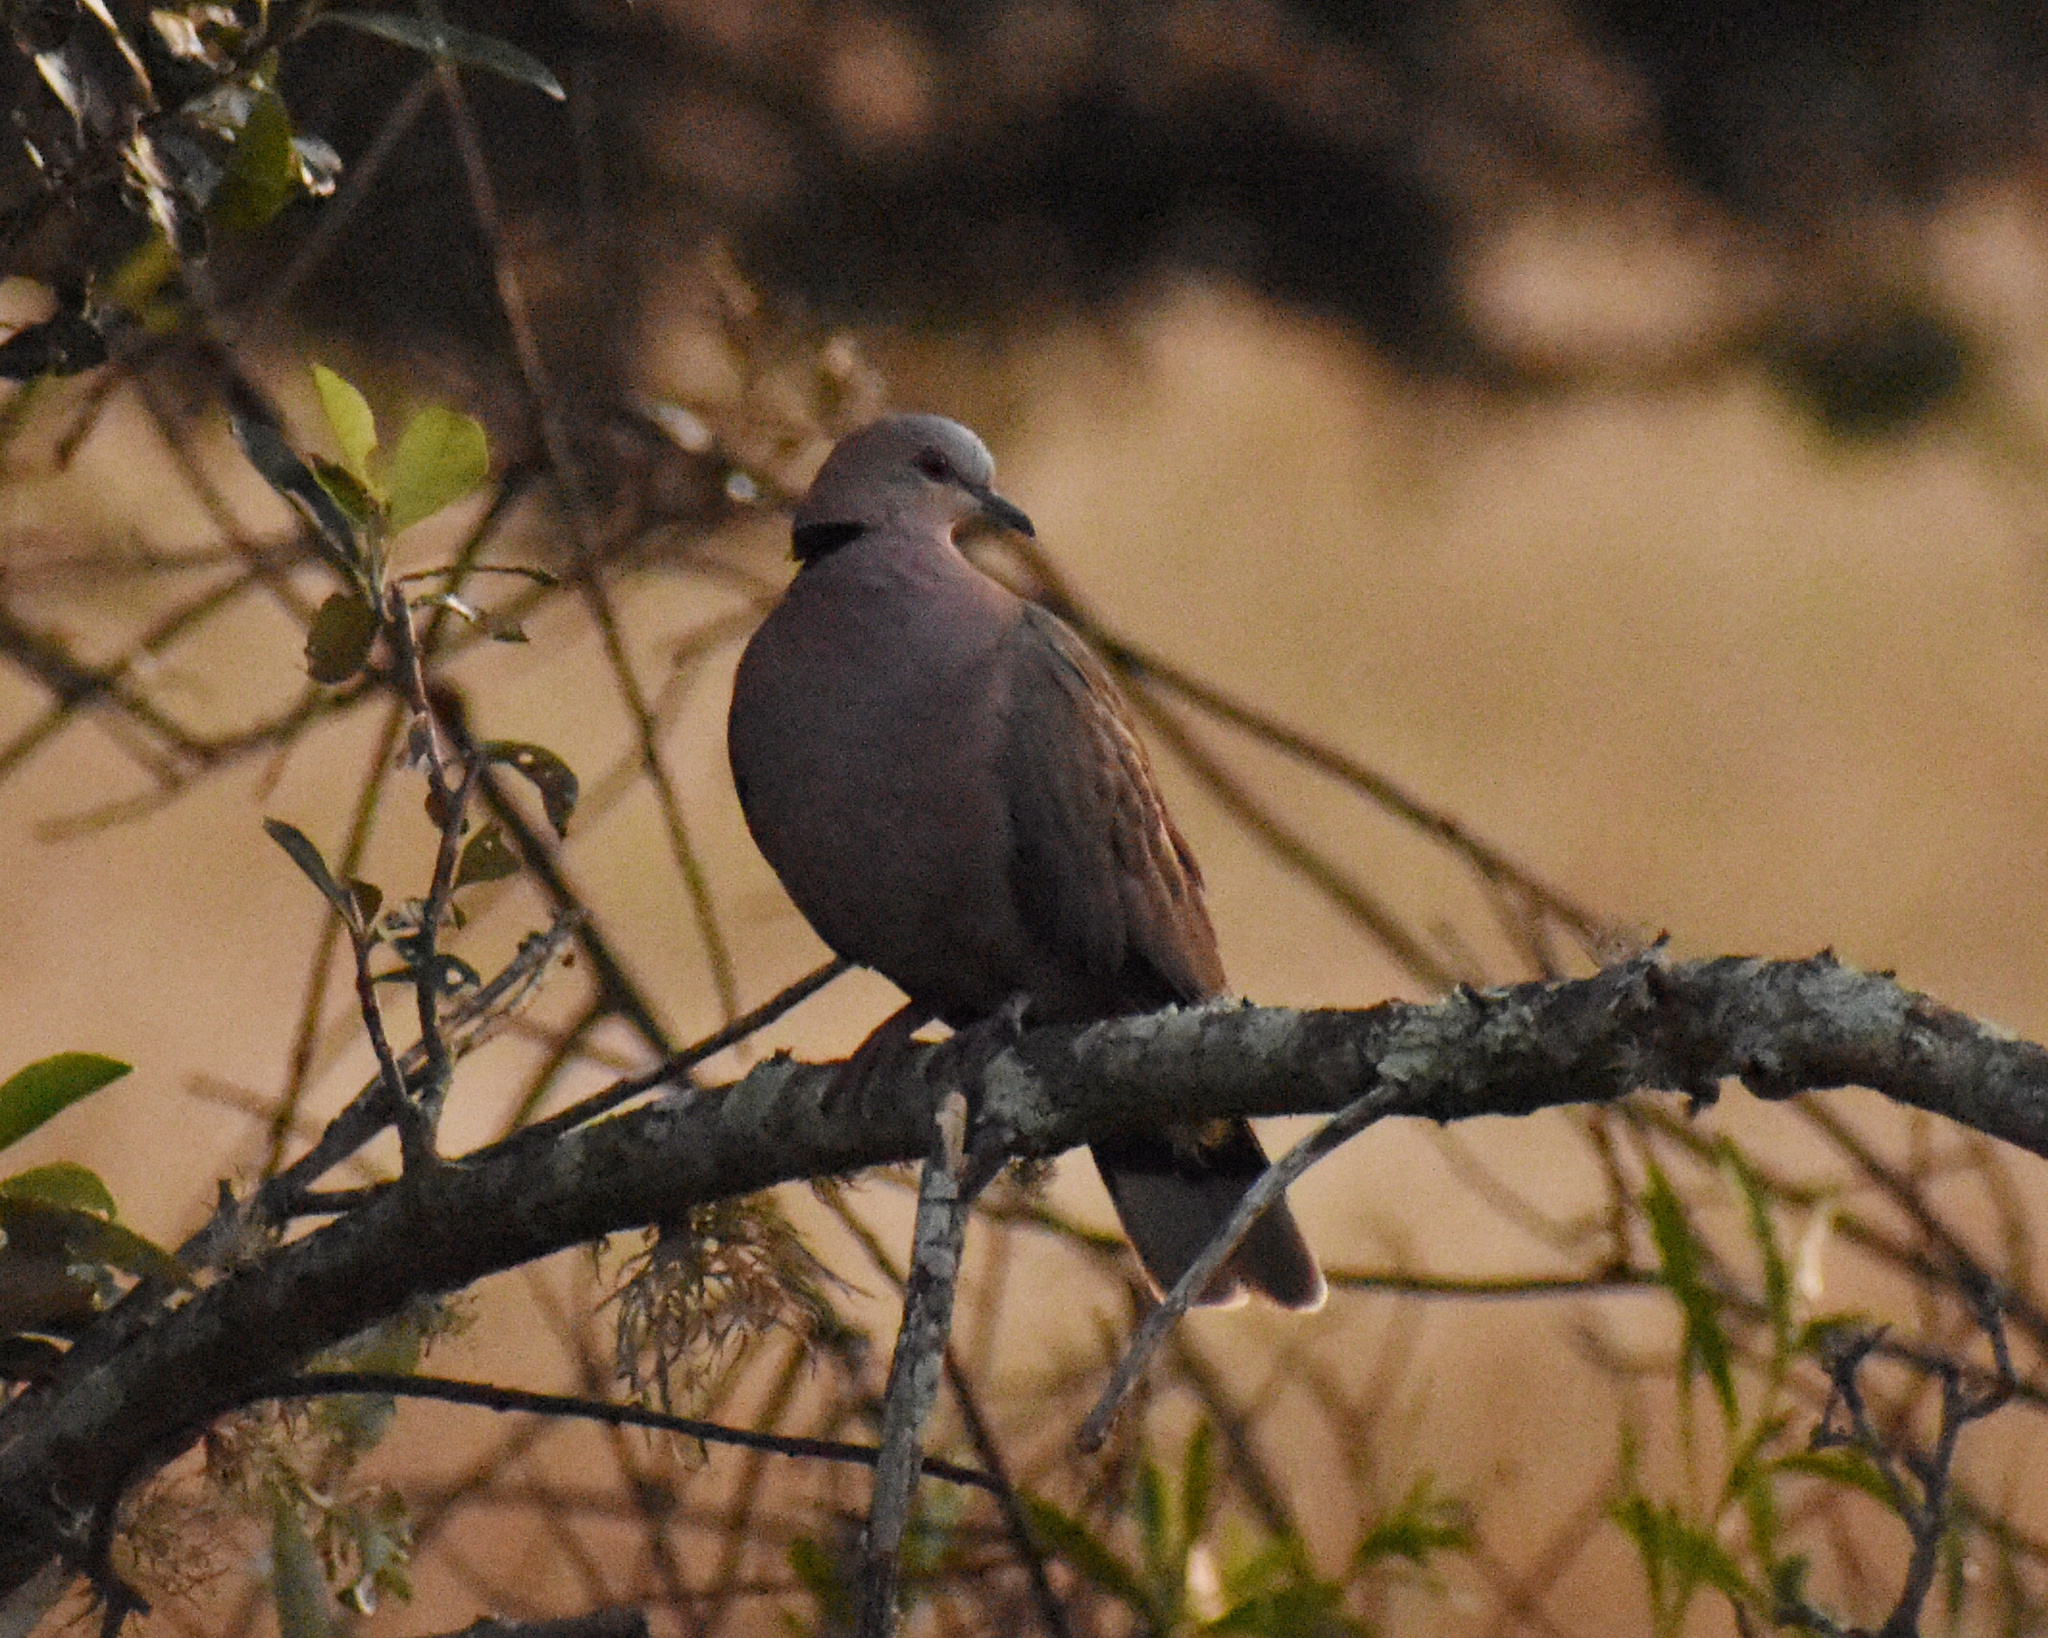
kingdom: Animalia
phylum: Chordata
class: Aves
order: Columbiformes
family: Columbidae
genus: Streptopelia
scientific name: Streptopelia semitorquata
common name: Red-eyed dove
